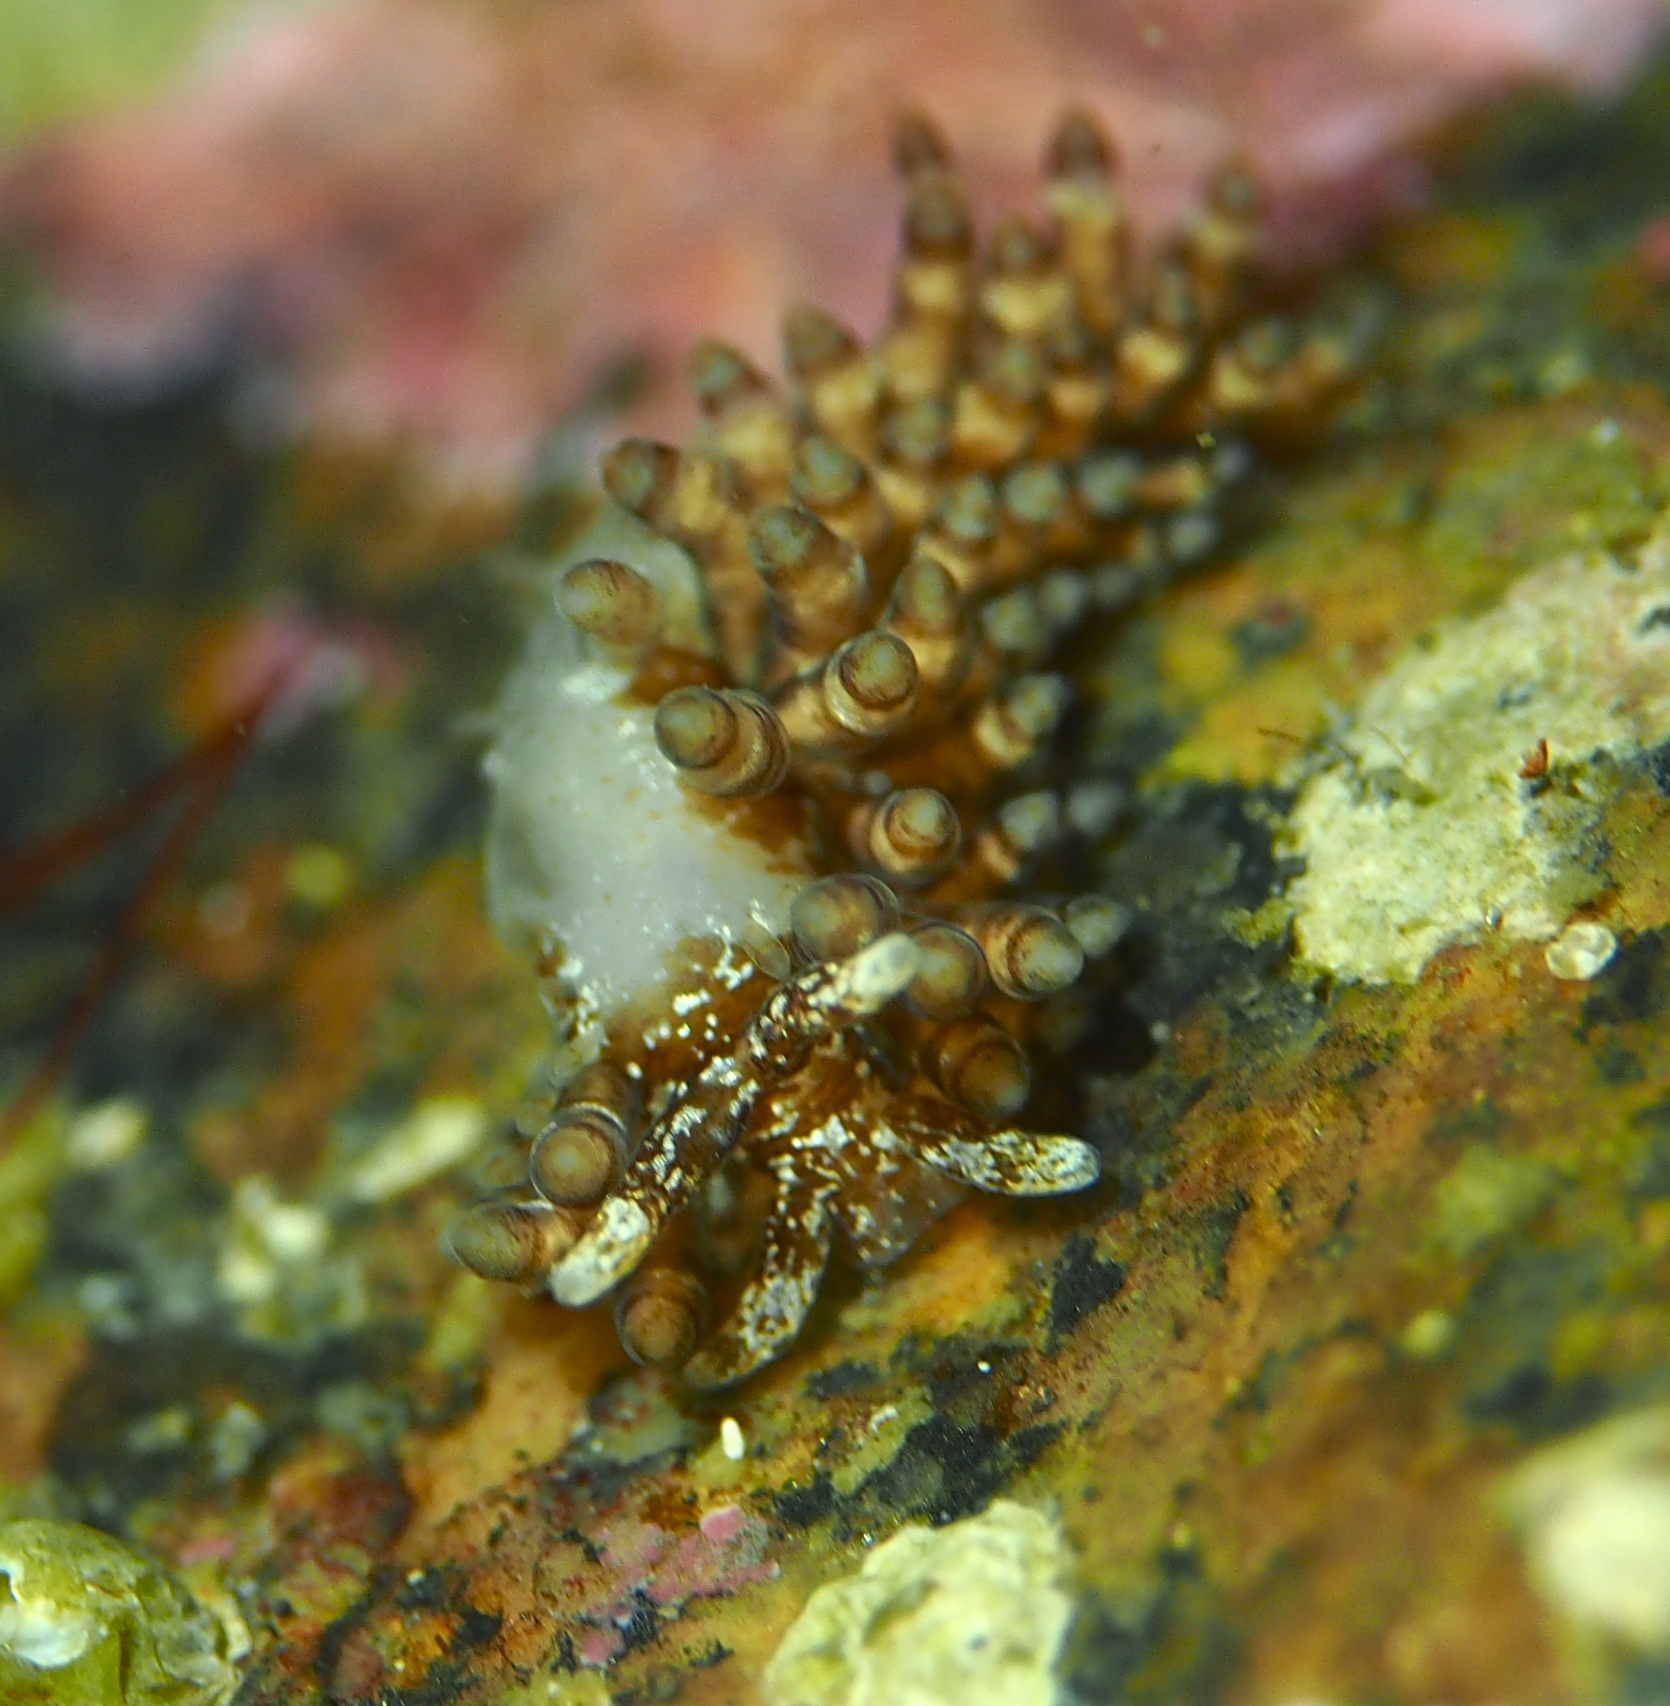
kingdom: Animalia
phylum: Mollusca
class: Gastropoda
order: Nudibranchia
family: Eubranchidae
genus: Eubranchus
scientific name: Eubranchus vittatus
